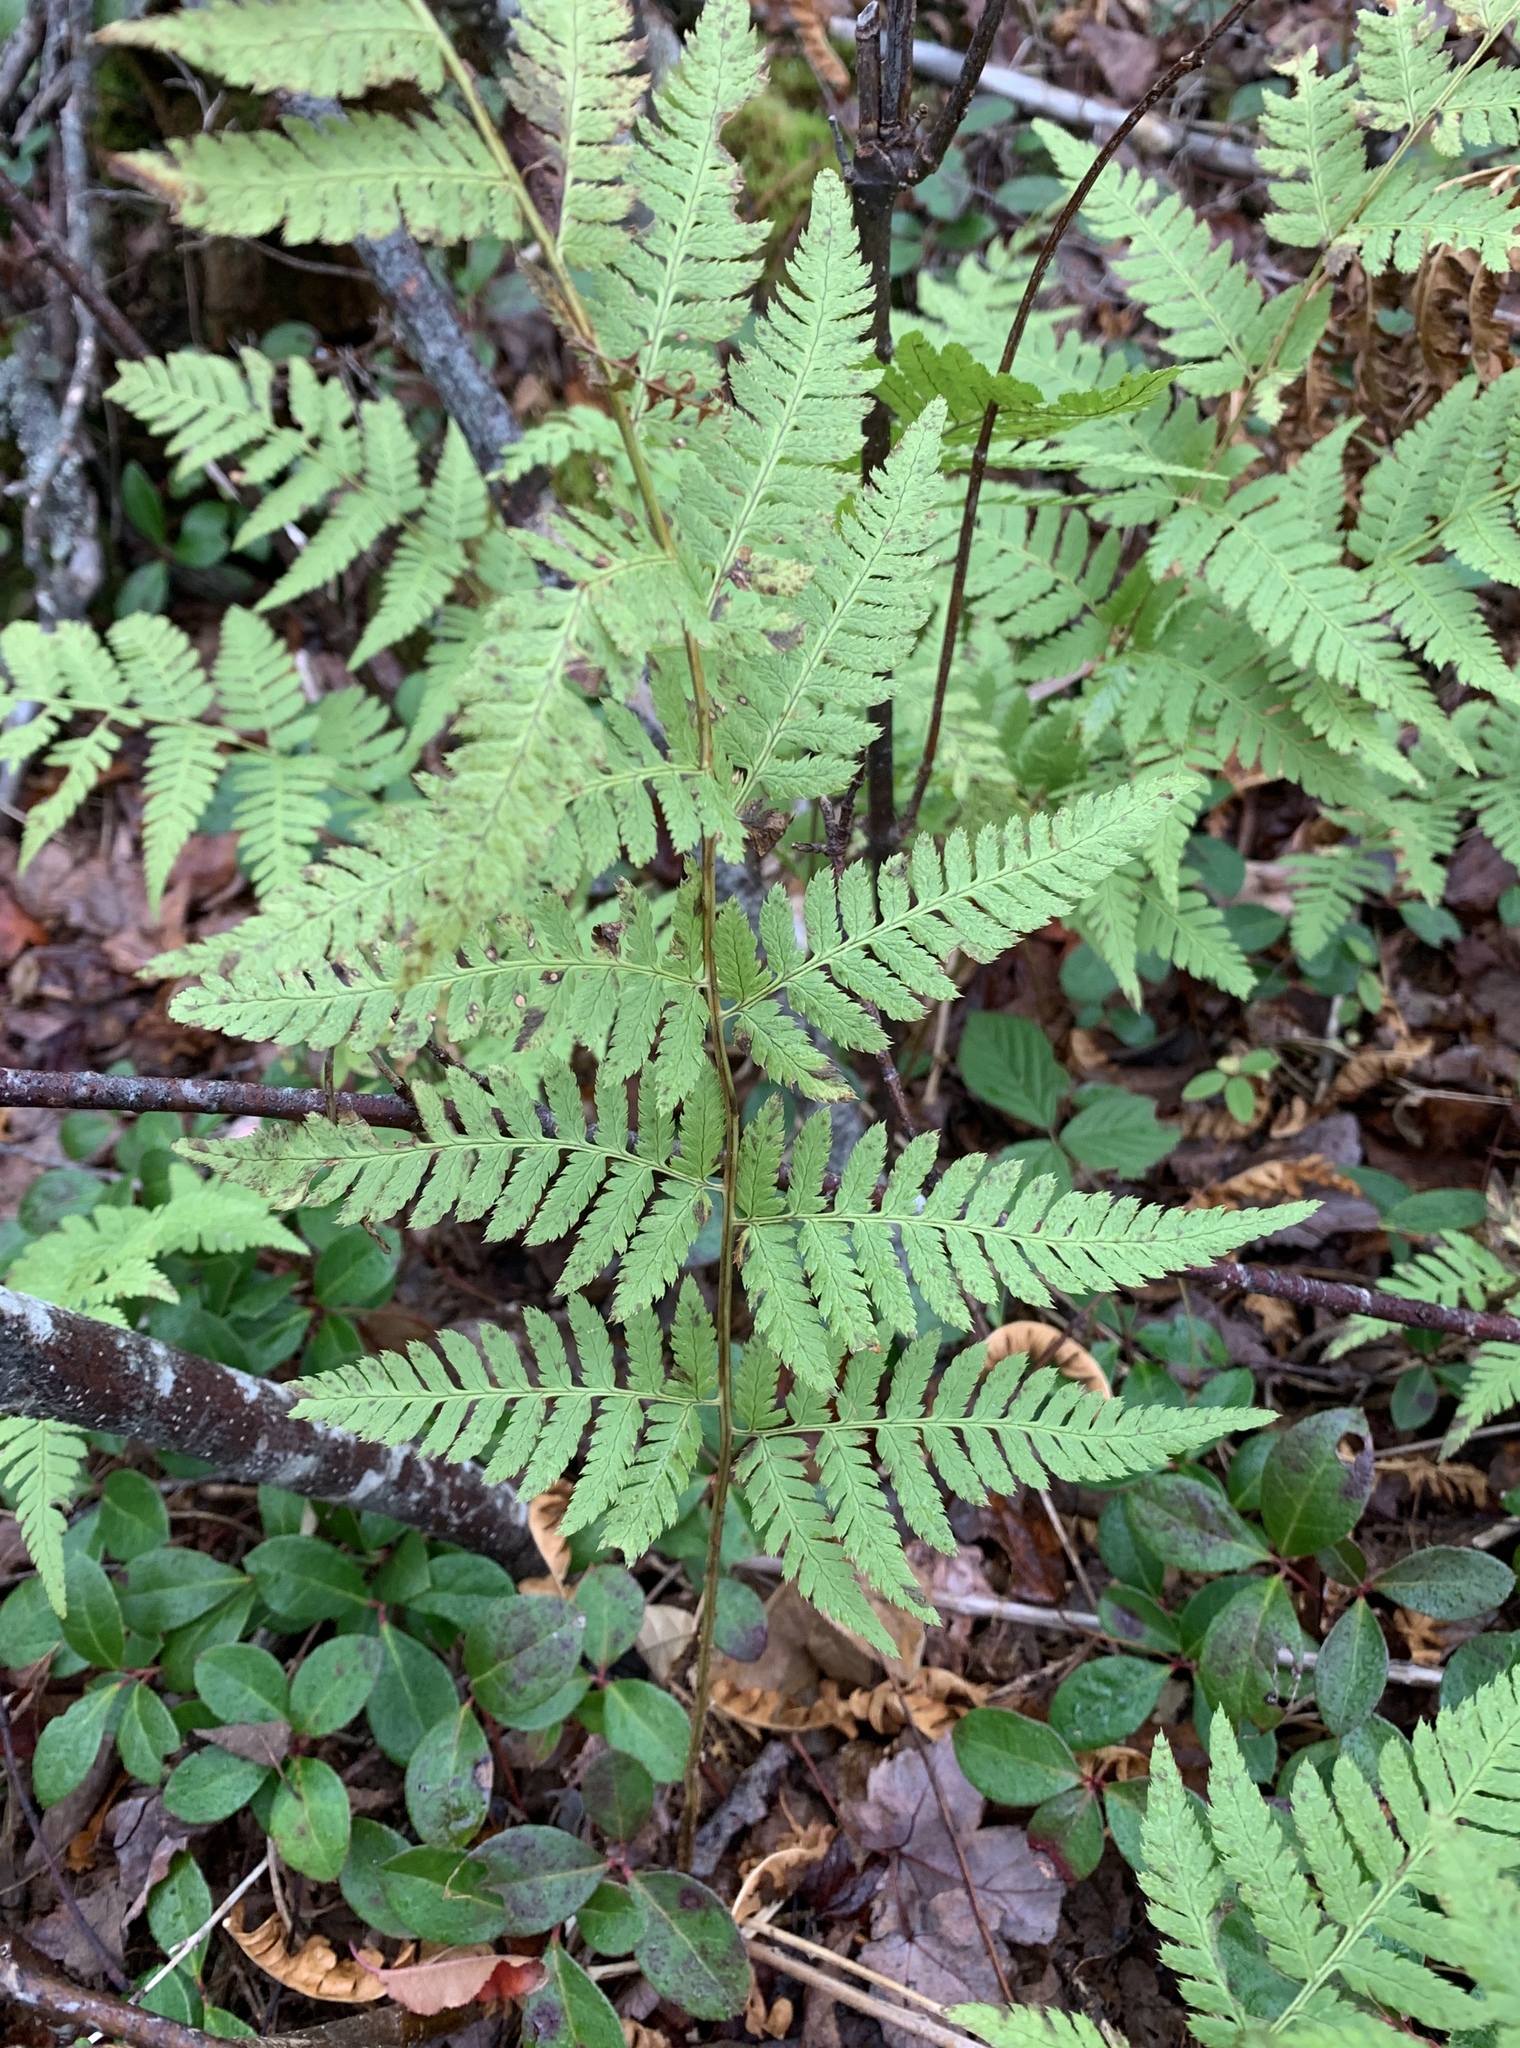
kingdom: Plantae
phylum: Tracheophyta
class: Polypodiopsida
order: Polypodiales
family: Dryopteridaceae
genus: Dryopteris
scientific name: Dryopteris carthusiana
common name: Narrow buckler-fern
